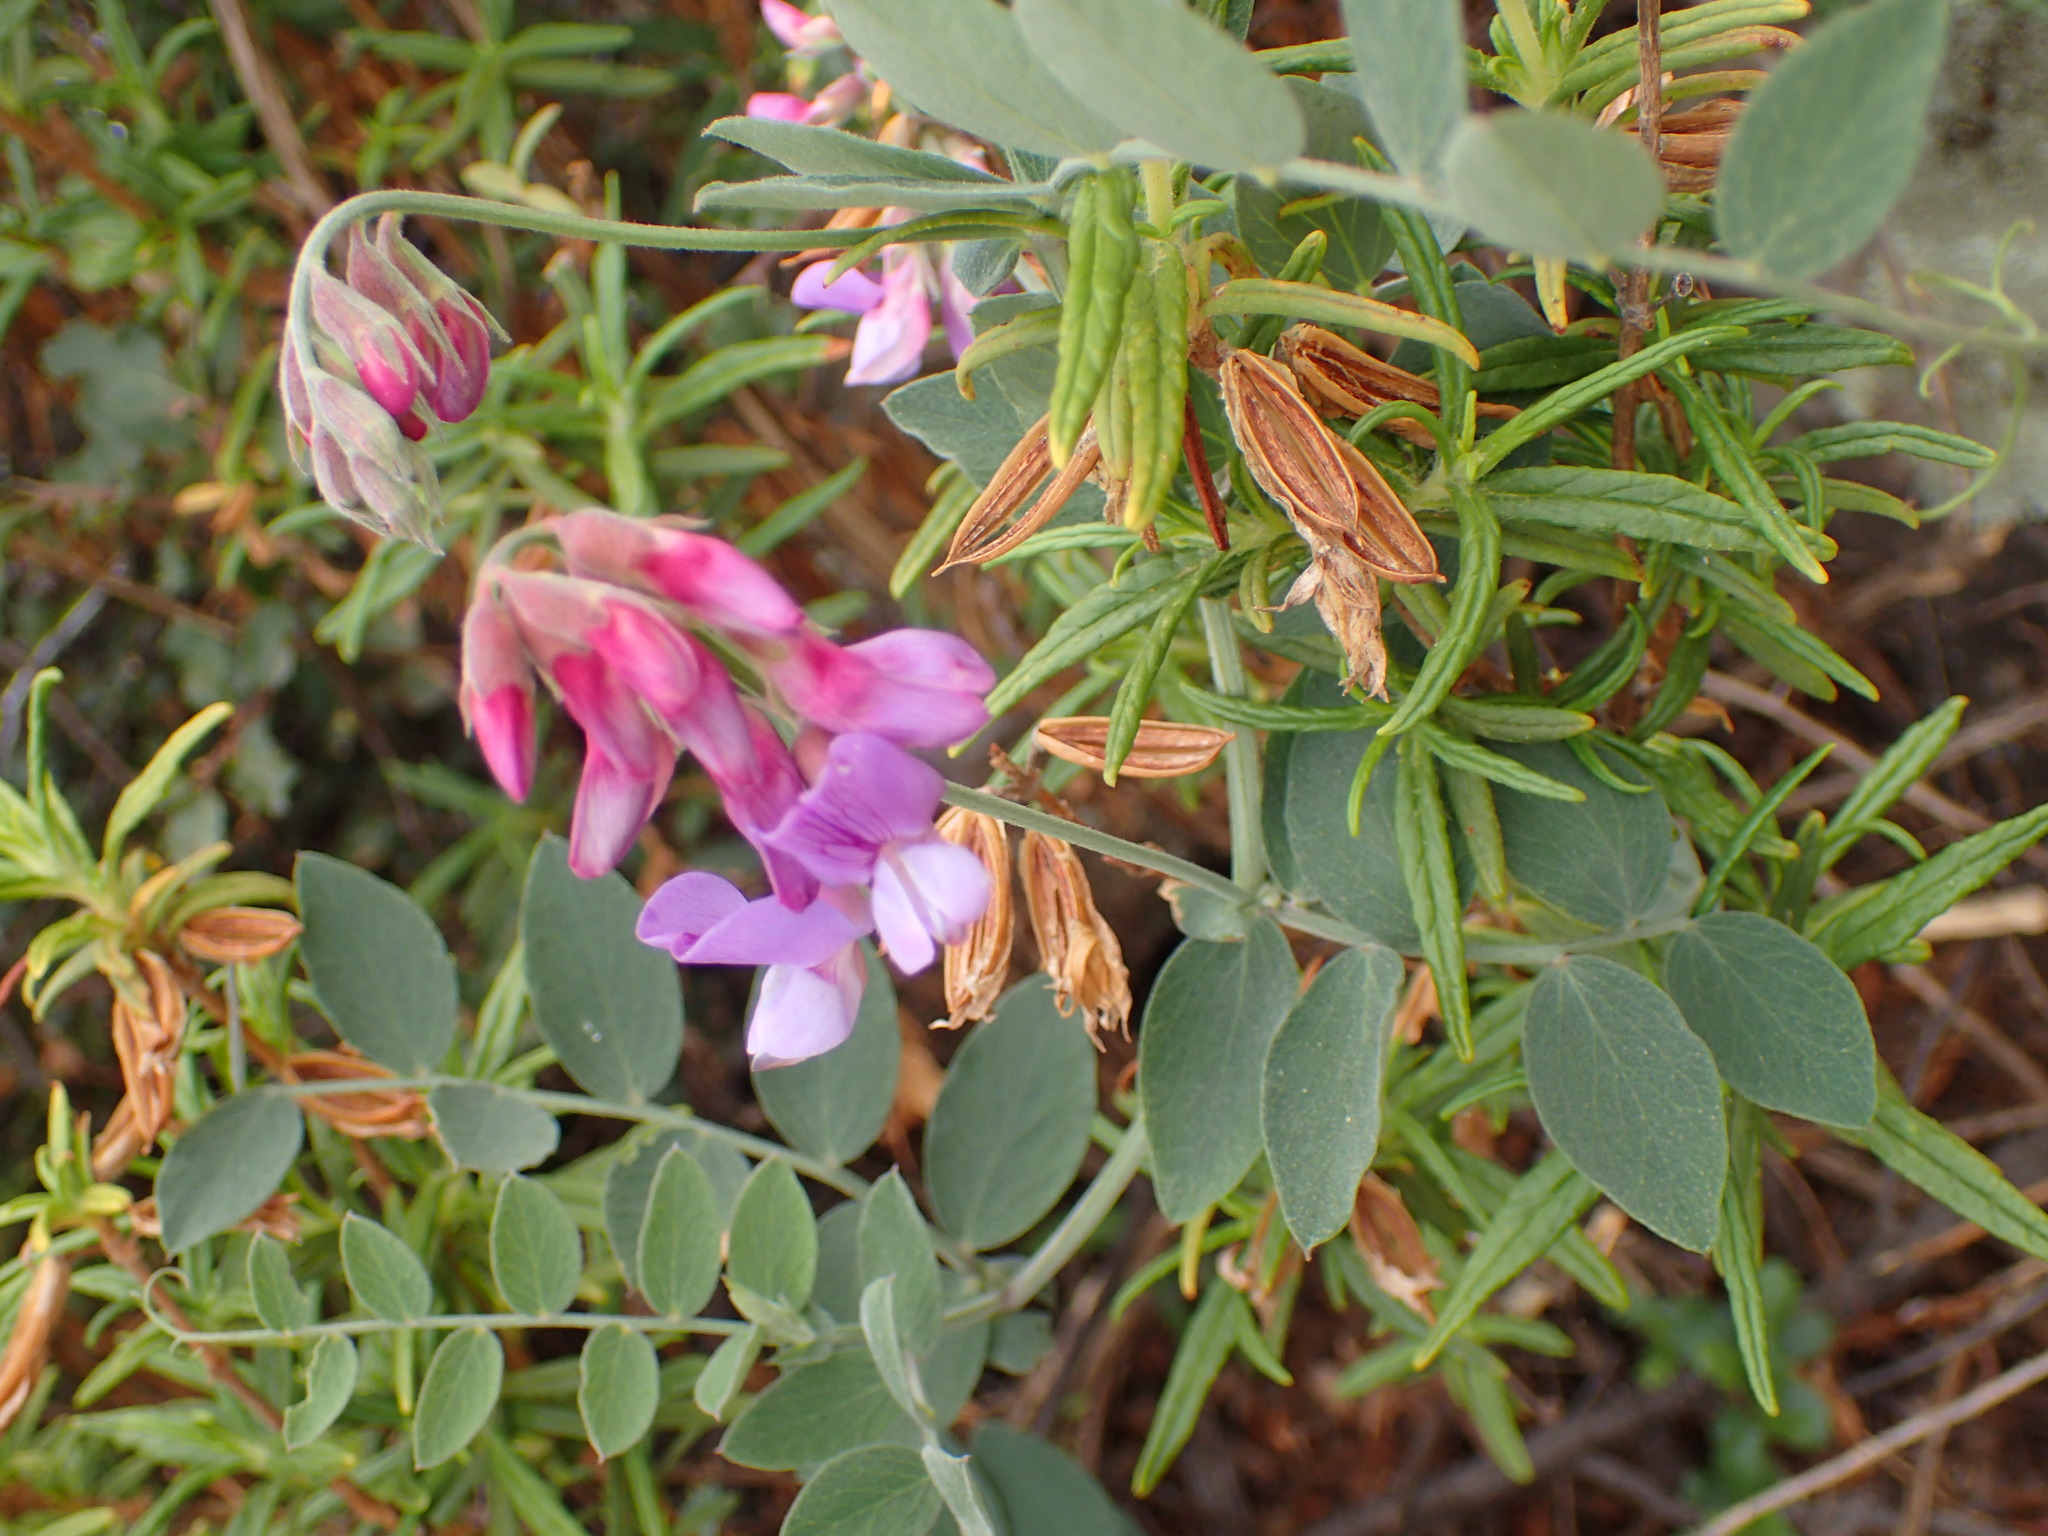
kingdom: Plantae
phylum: Tracheophyta
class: Magnoliopsida
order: Fabales
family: Fabaceae
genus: Lathyrus
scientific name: Lathyrus vestitus
